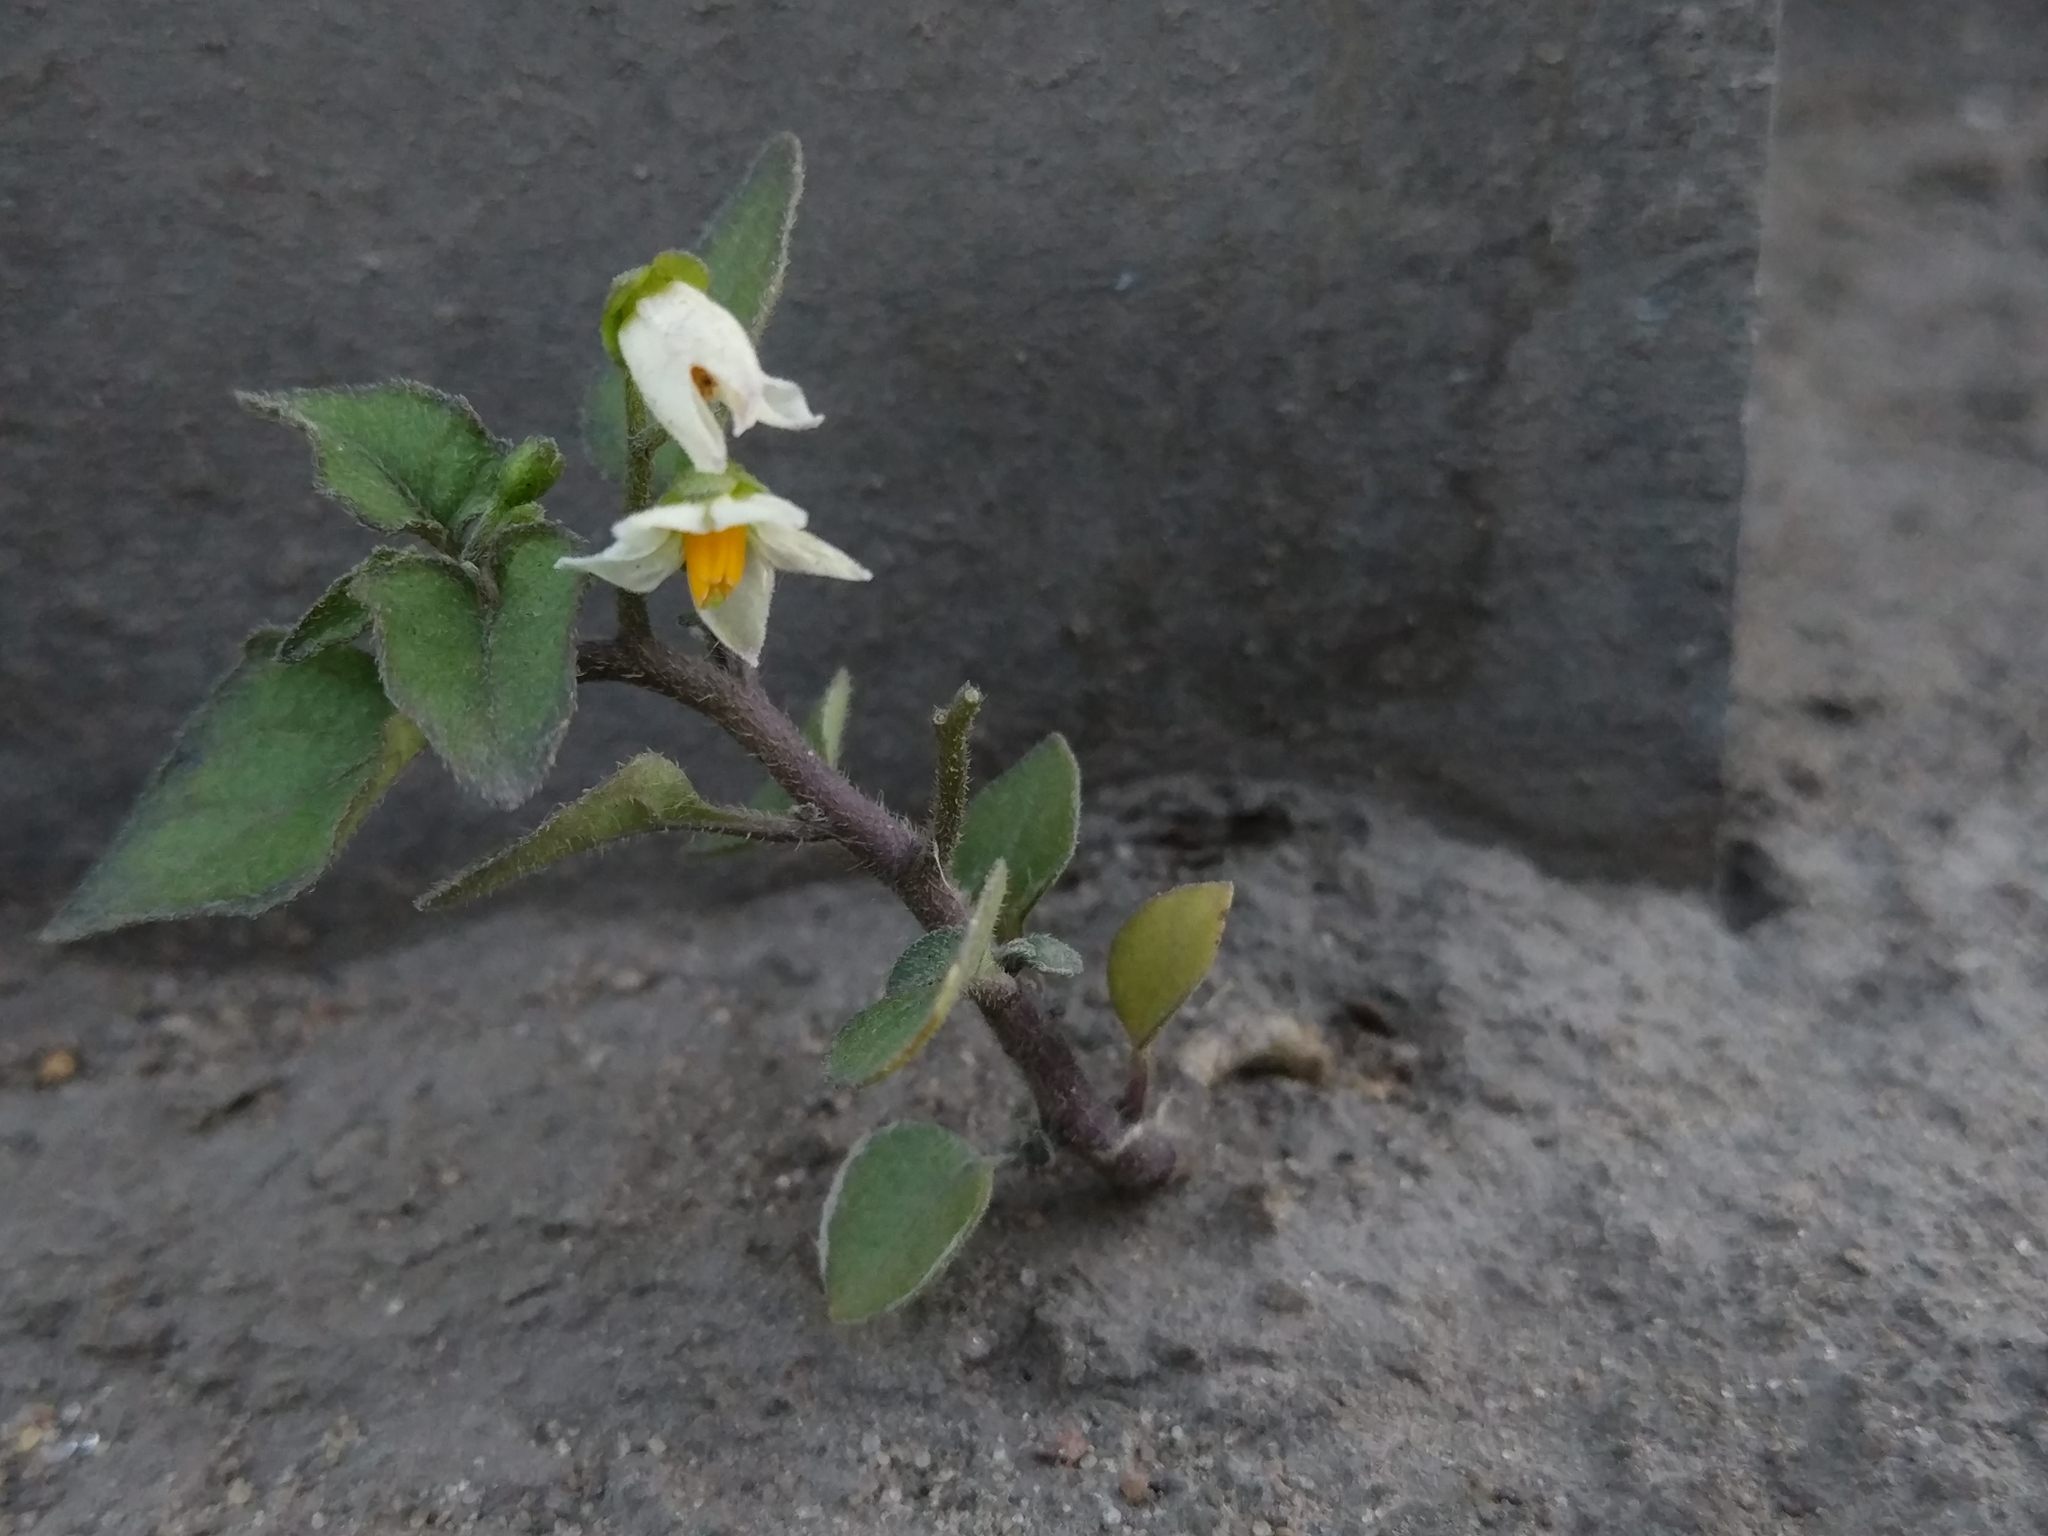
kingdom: Plantae
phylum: Tracheophyta
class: Magnoliopsida
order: Solanales
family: Solanaceae
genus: Solanum
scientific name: Solanum nigrum
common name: Black nightshade
